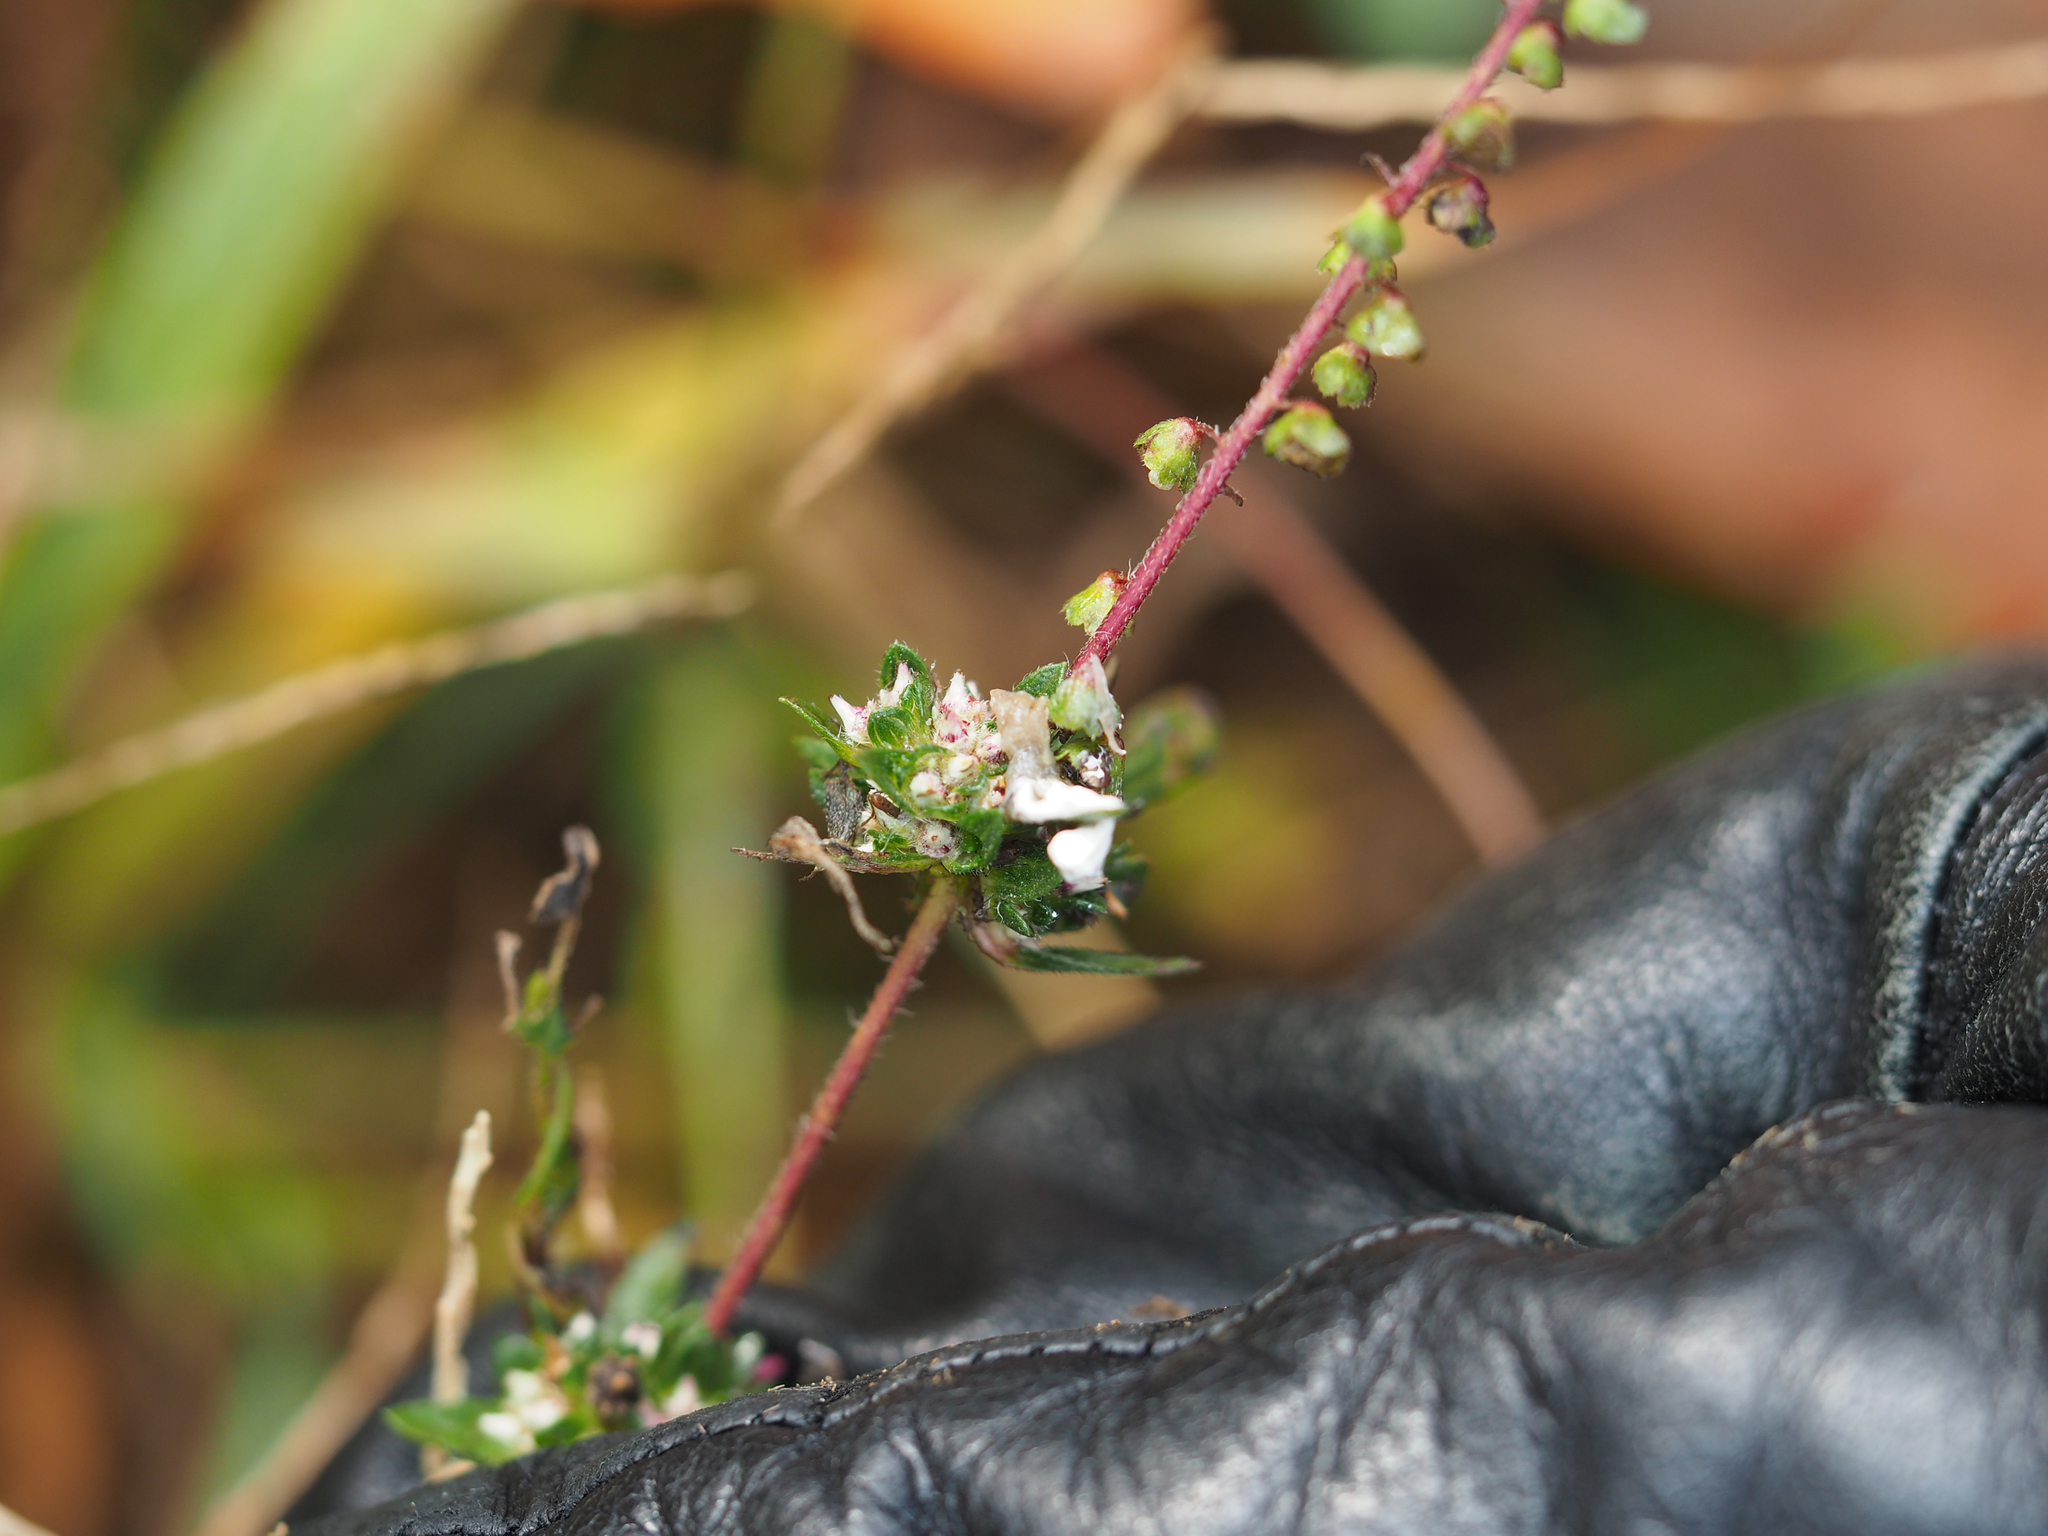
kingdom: Plantae
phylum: Tracheophyta
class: Magnoliopsida
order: Asterales
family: Asteraceae
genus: Ambrosia
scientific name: Ambrosia artemisiifolia
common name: Annual ragweed
